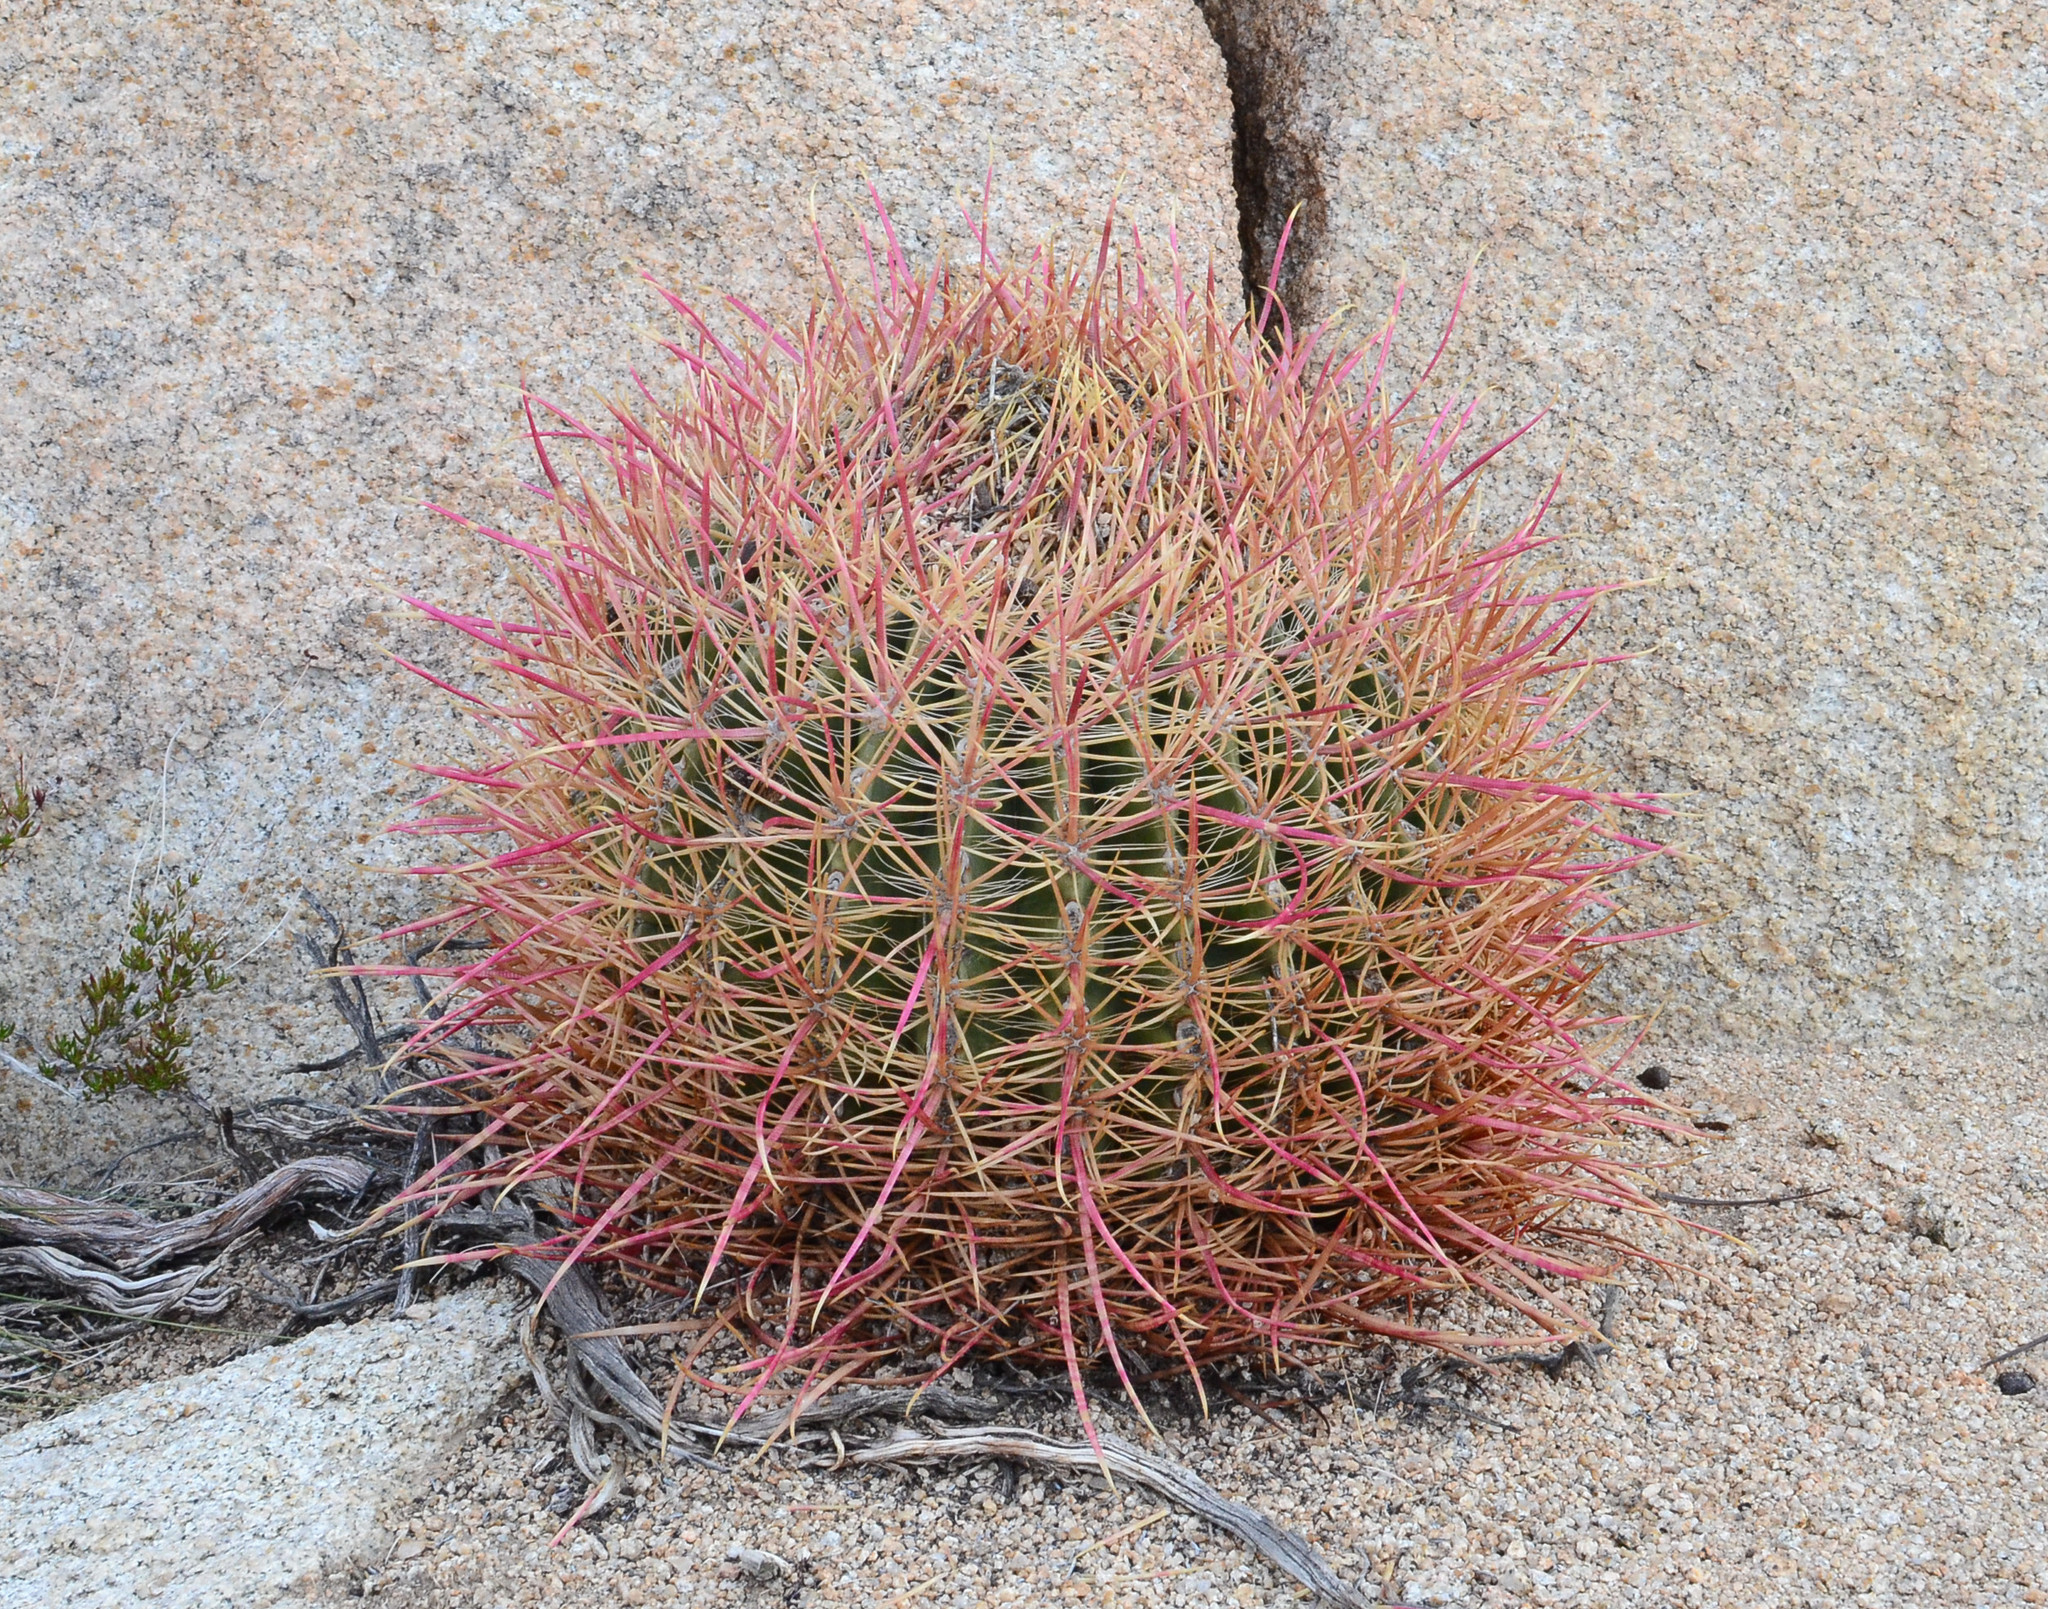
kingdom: Plantae
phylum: Tracheophyta
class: Magnoliopsida
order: Caryophyllales
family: Cactaceae
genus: Ferocactus
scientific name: Ferocactus cylindraceus
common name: California barrel cactus
